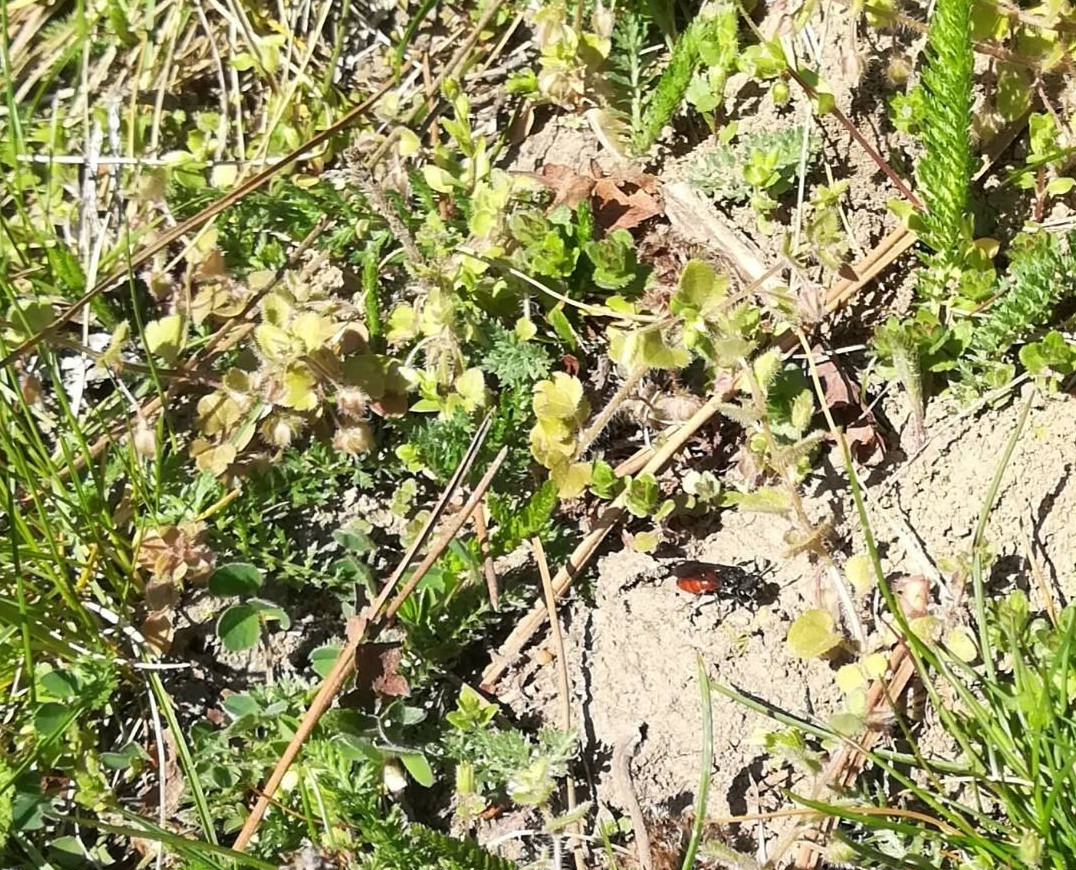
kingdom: Animalia
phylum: Arthropoda
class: Insecta
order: Hymenoptera
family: Halictidae
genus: Sphecodes
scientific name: Sphecodes albilabris
